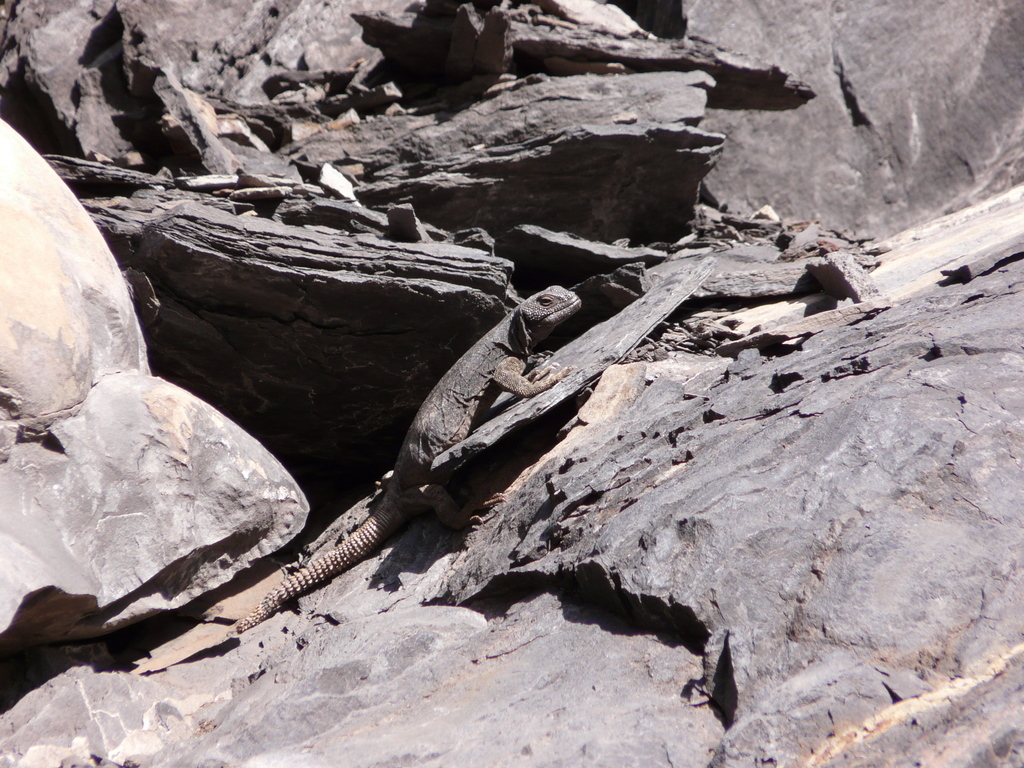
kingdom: Animalia
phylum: Chordata
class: Squamata
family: Liolaemidae
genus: Phymaturus
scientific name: Phymaturus verdugo
